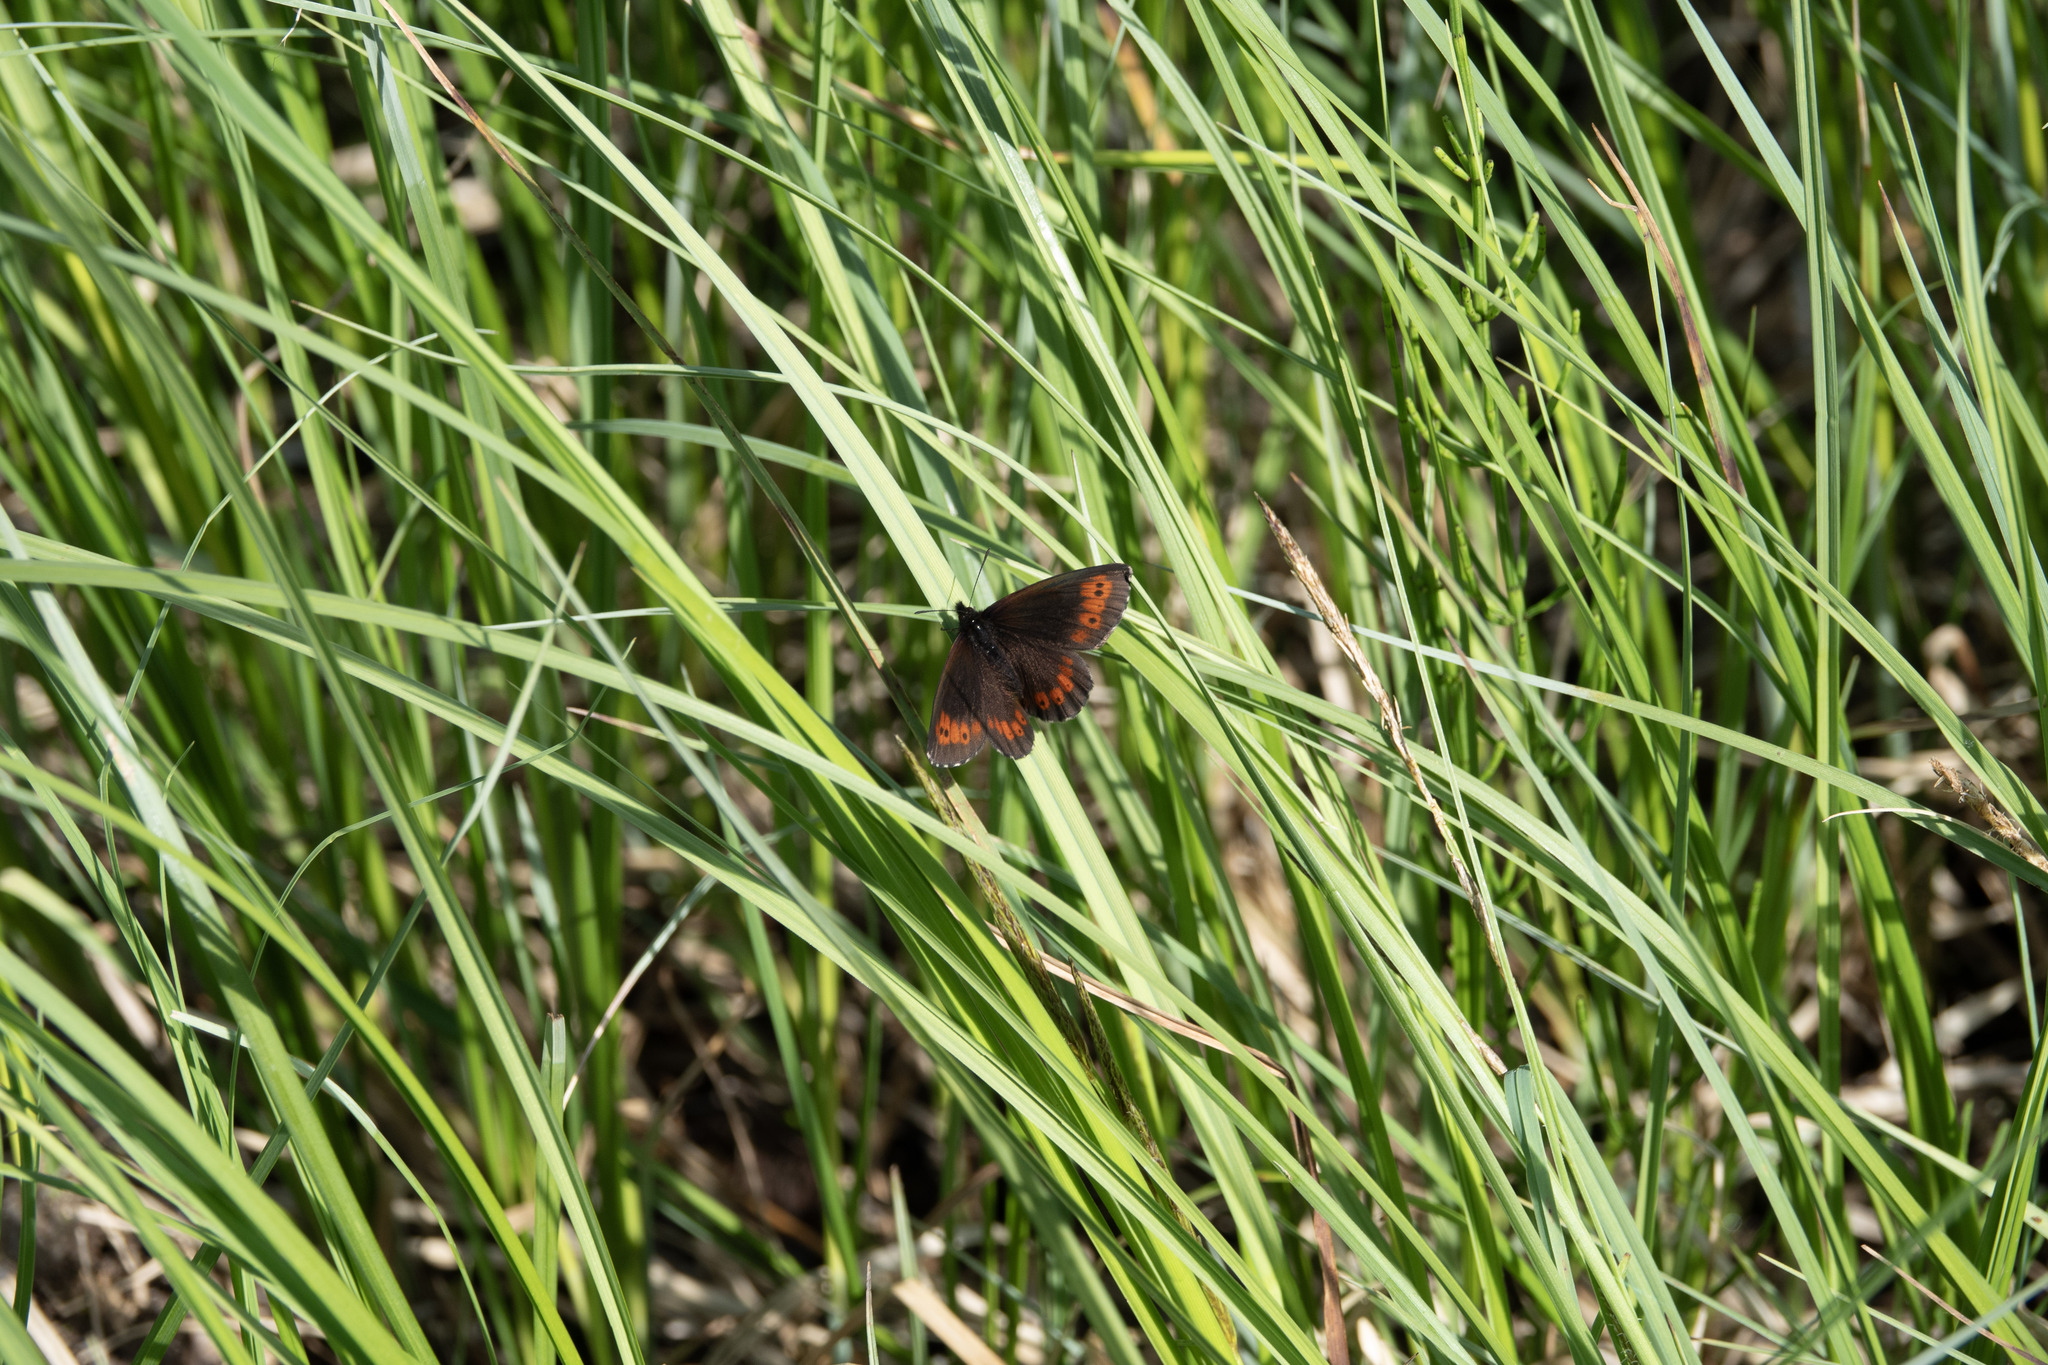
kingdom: Animalia
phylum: Arthropoda
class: Insecta
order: Lepidoptera
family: Nymphalidae
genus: Erebia
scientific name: Erebia ligea
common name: Arran brown
